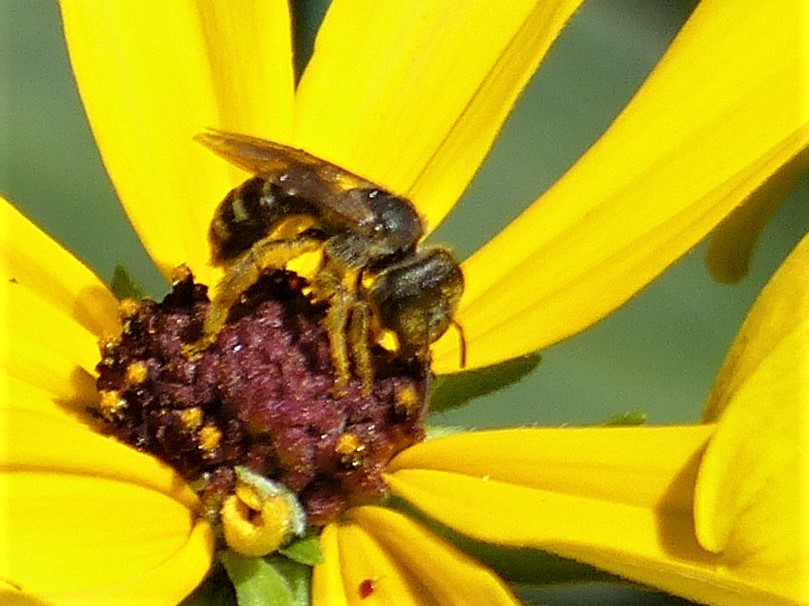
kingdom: Animalia
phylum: Arthropoda
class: Insecta
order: Hymenoptera
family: Halictidae
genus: Halictus
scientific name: Halictus ligatus
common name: Ligated furrow bee
